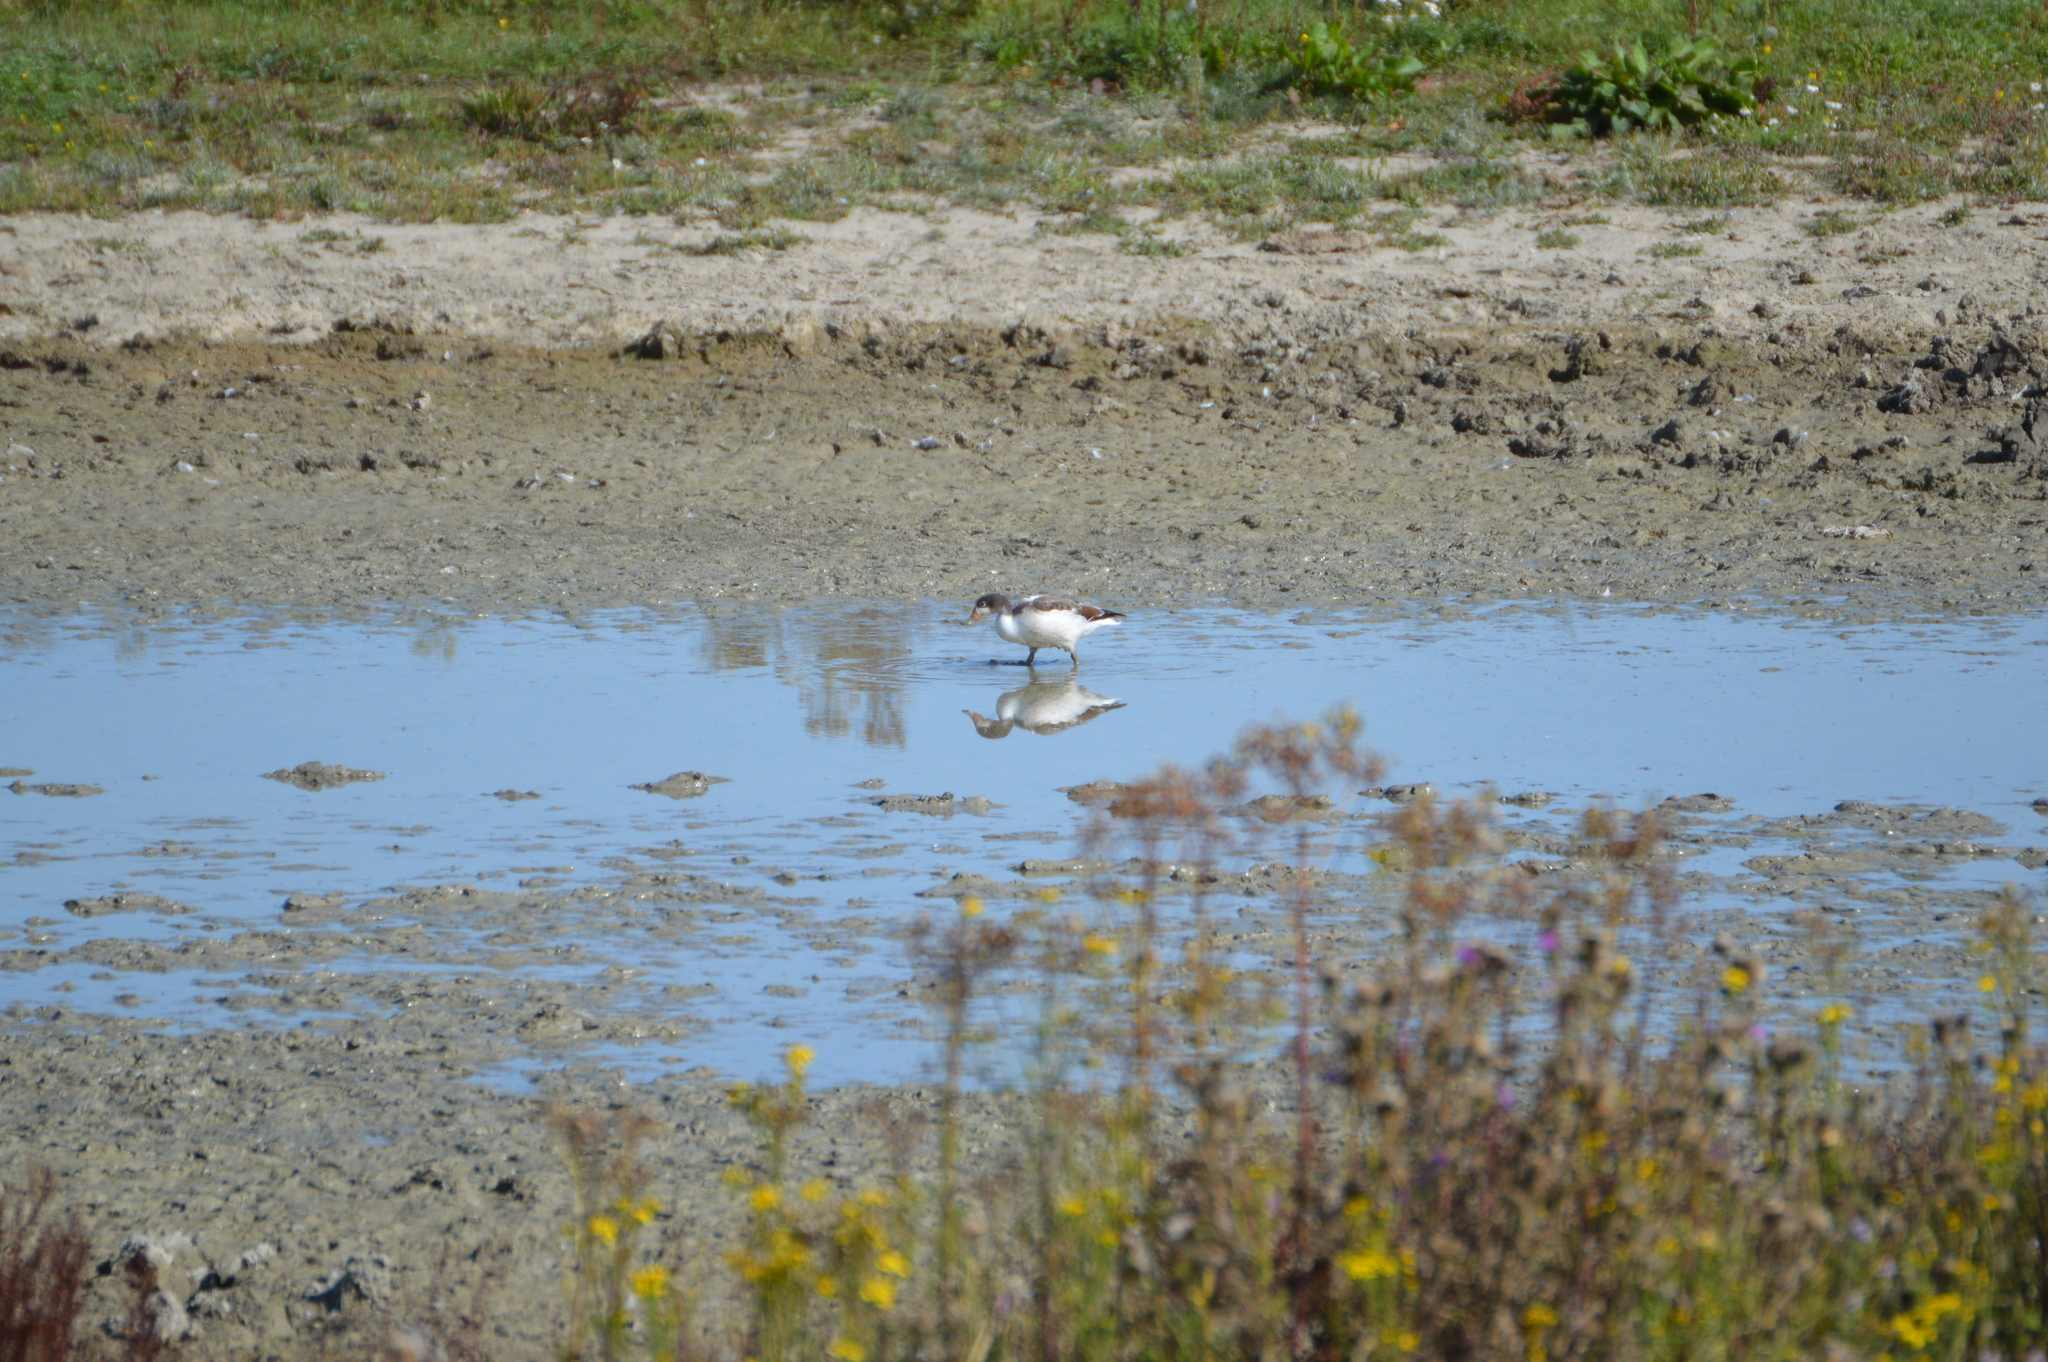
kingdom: Animalia
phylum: Chordata
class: Aves
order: Anseriformes
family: Anatidae
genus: Tadorna
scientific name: Tadorna tadorna
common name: Common shelduck
